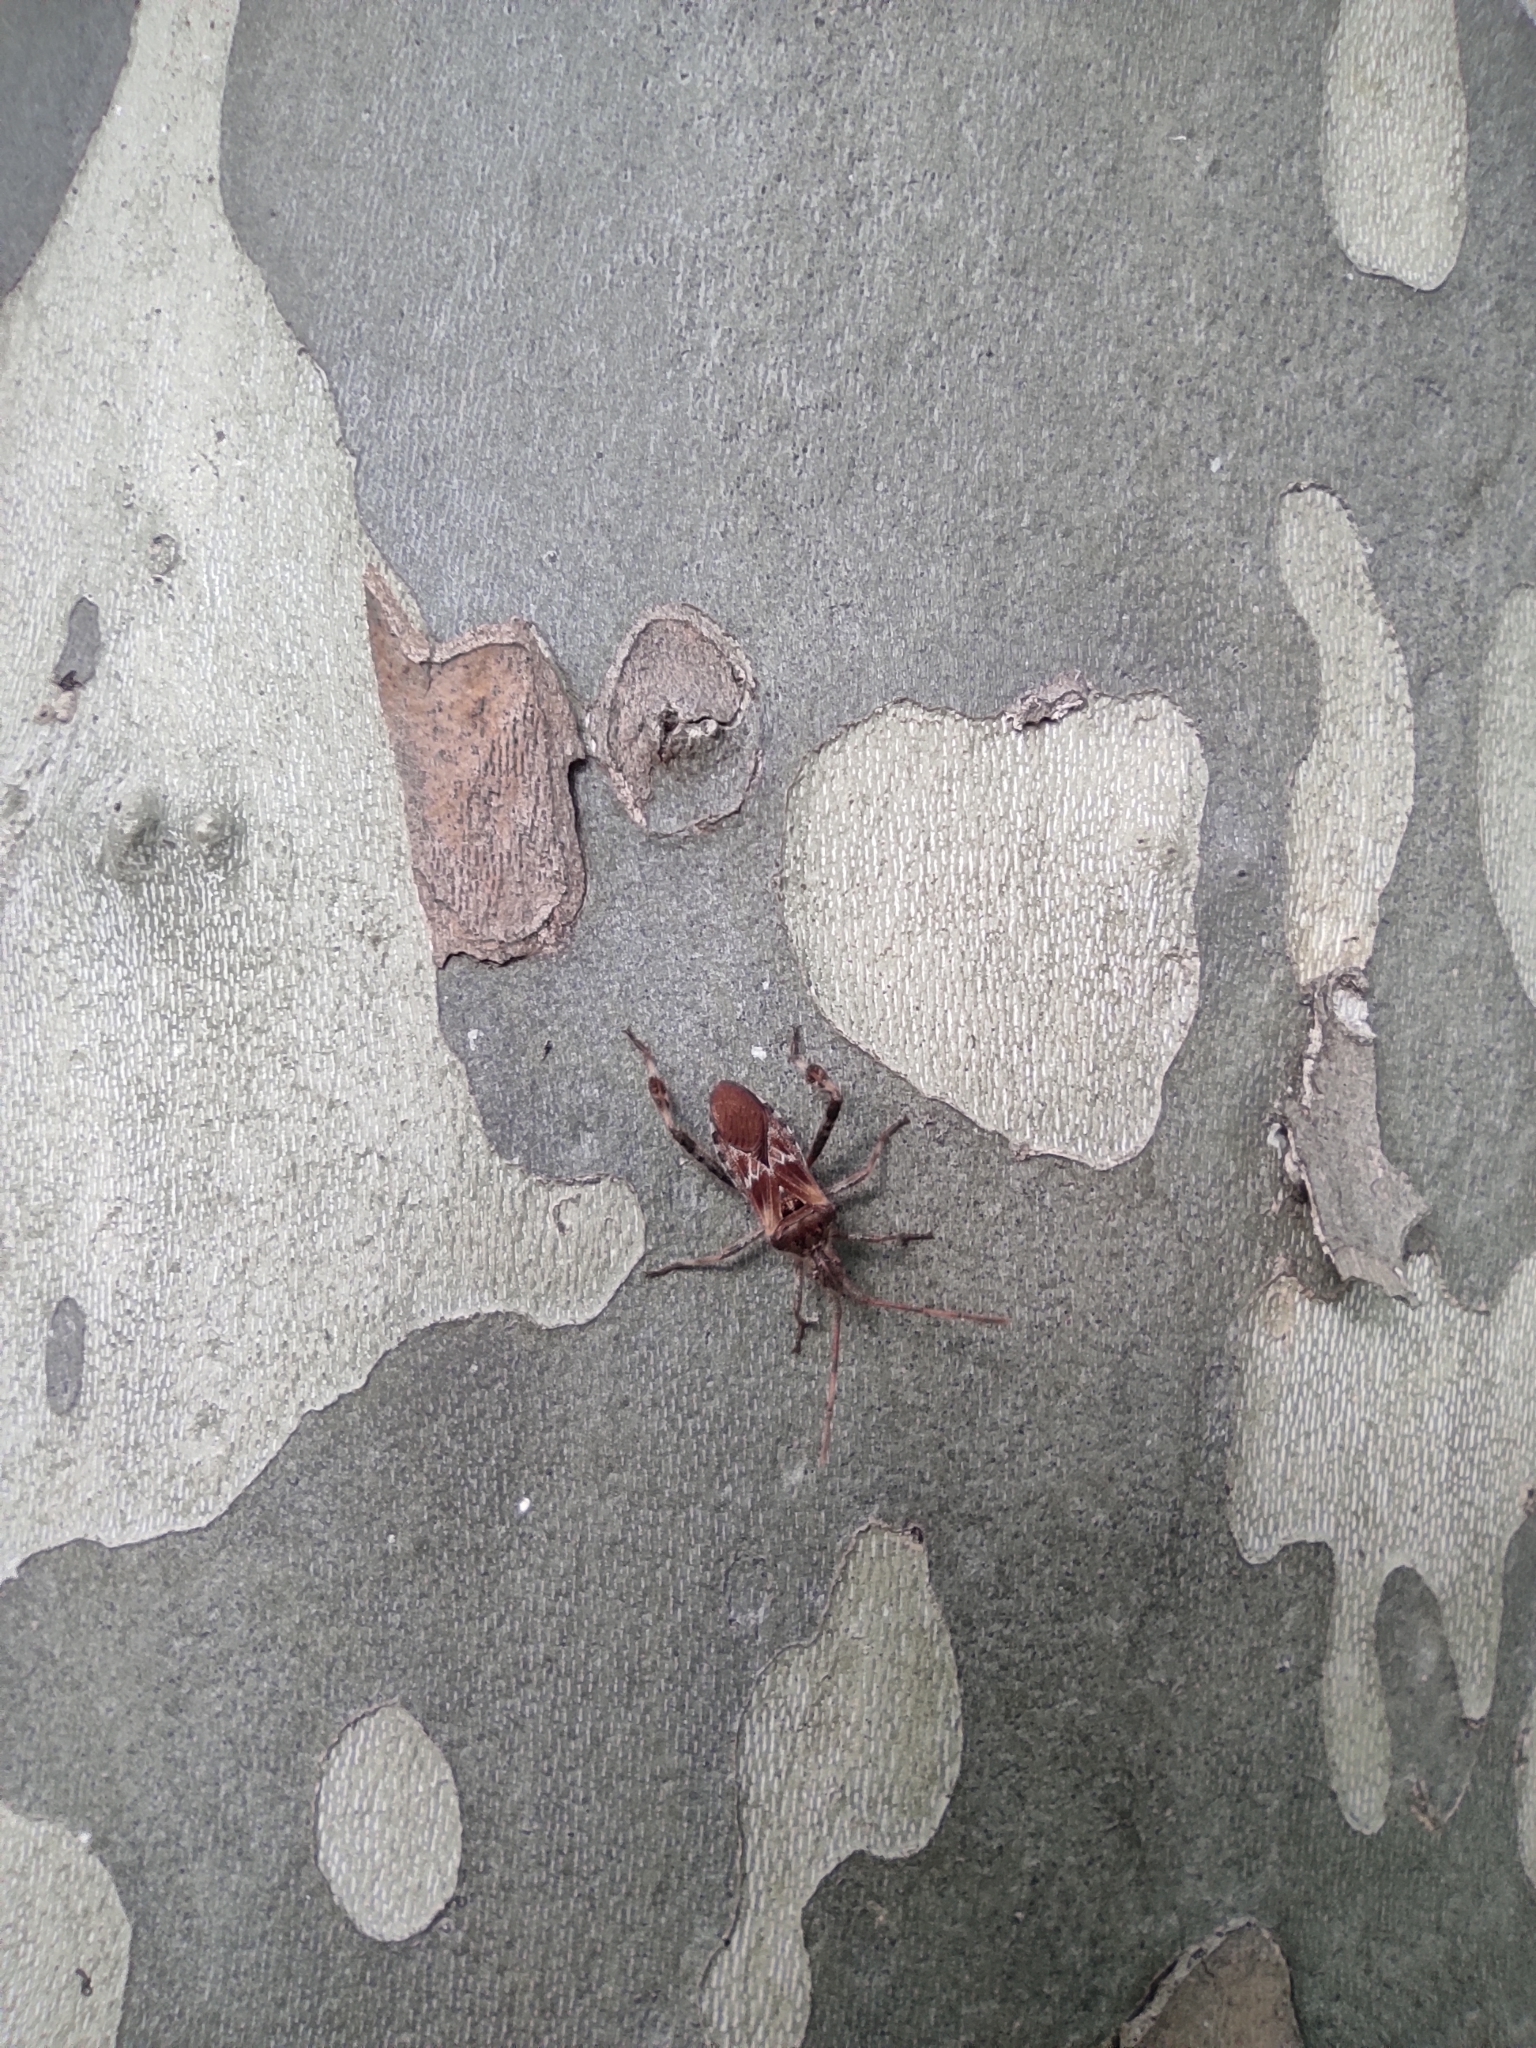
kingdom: Animalia
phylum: Arthropoda
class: Insecta
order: Hemiptera
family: Coreidae
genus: Leptoglossus
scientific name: Leptoglossus occidentalis
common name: Western conifer-seed bug
